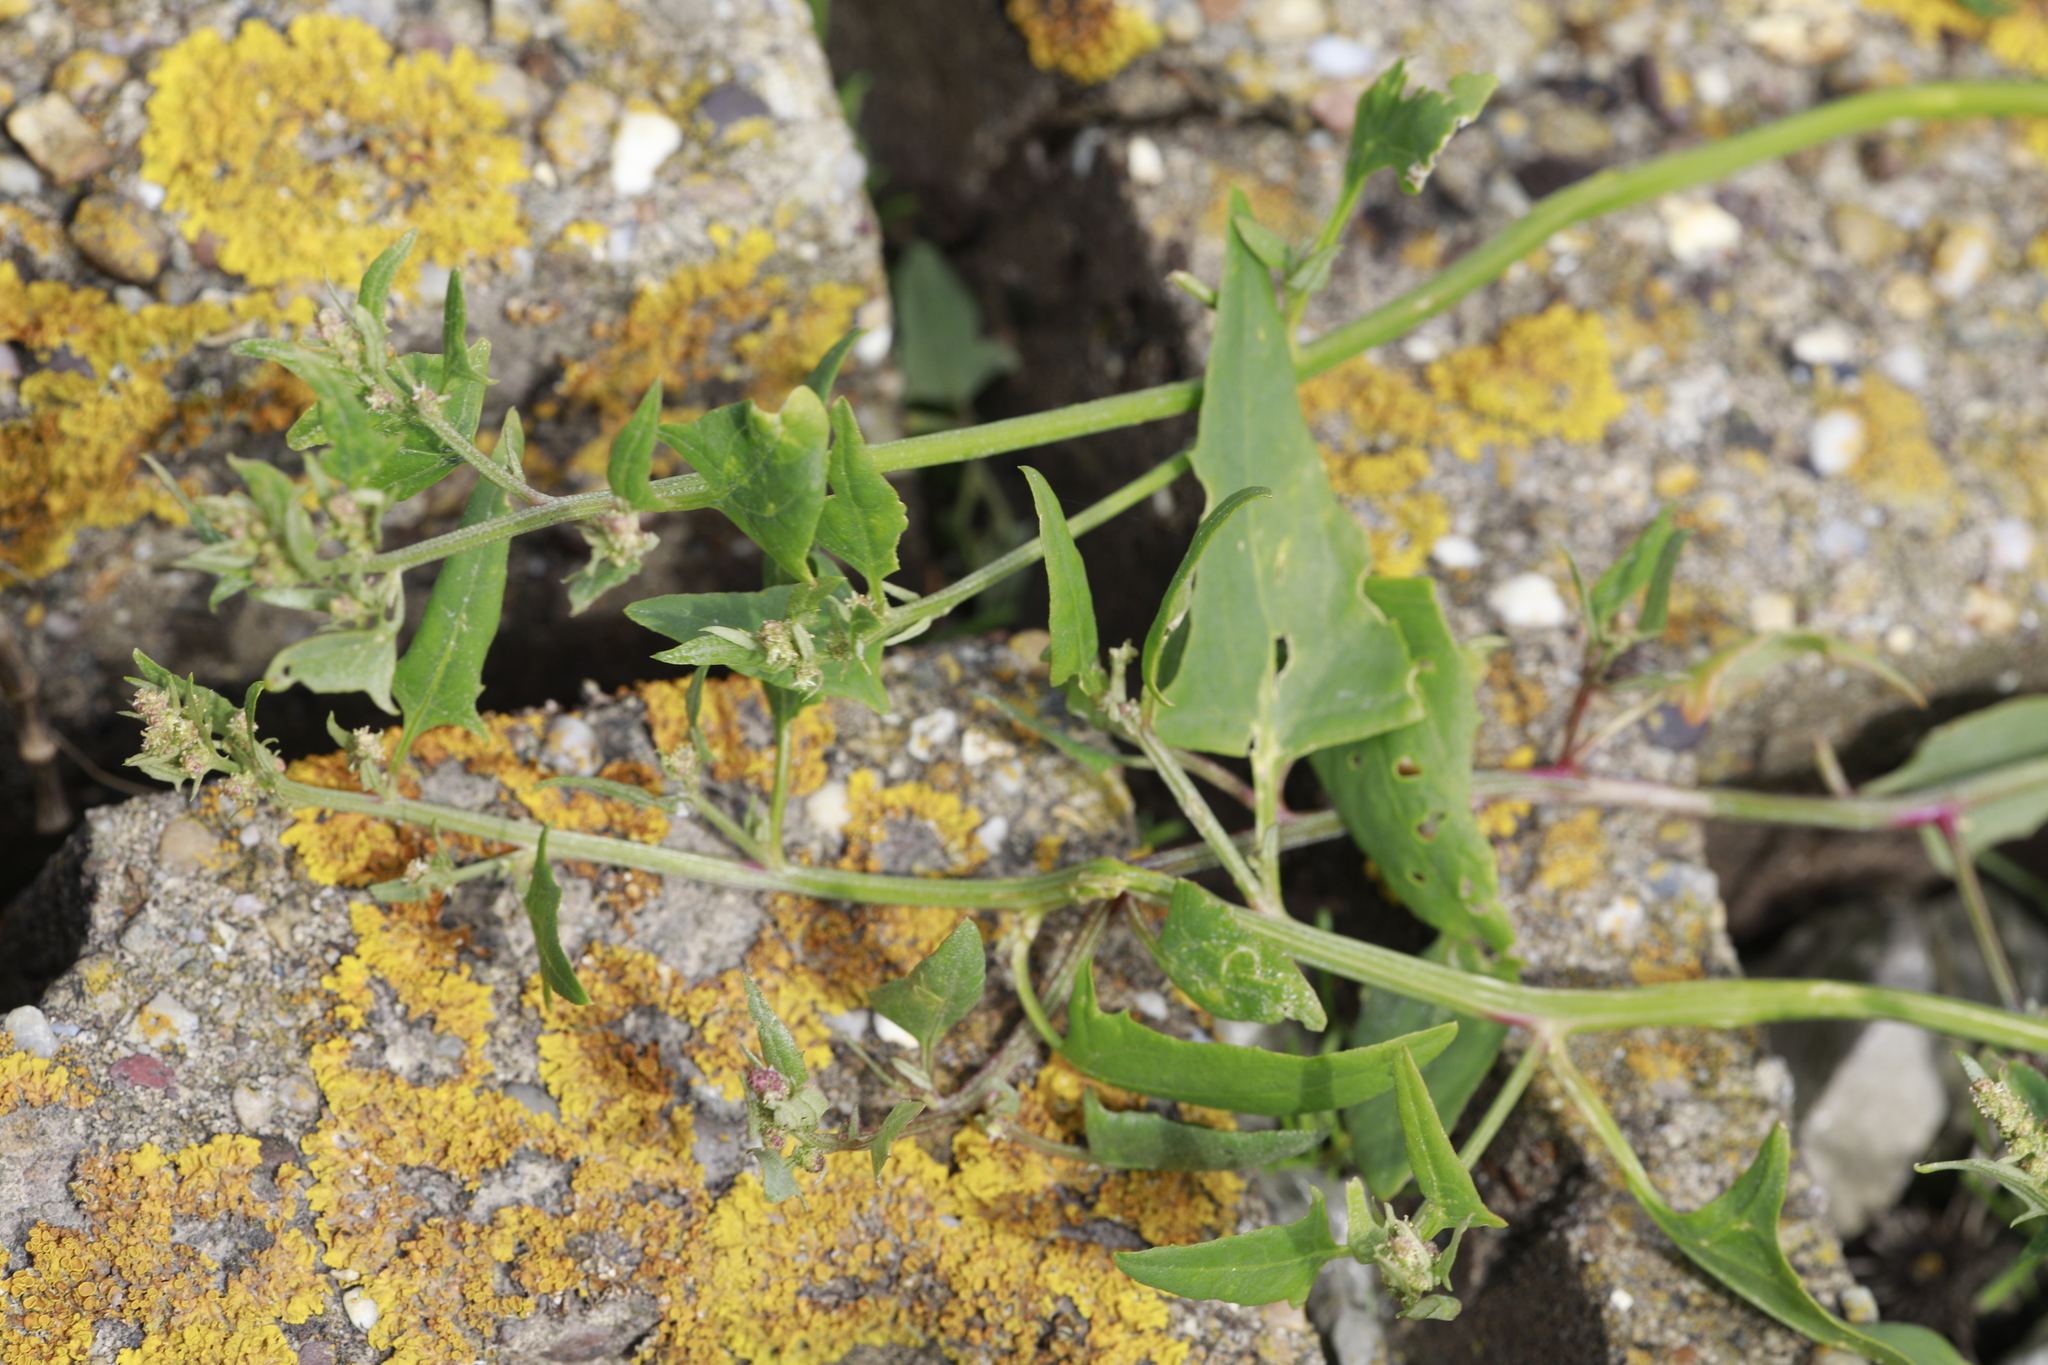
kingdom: Plantae
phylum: Tracheophyta
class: Magnoliopsida
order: Caryophyllales
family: Amaranthaceae
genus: Atriplex
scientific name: Atriplex prostrata
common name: Spear-leaved orache
